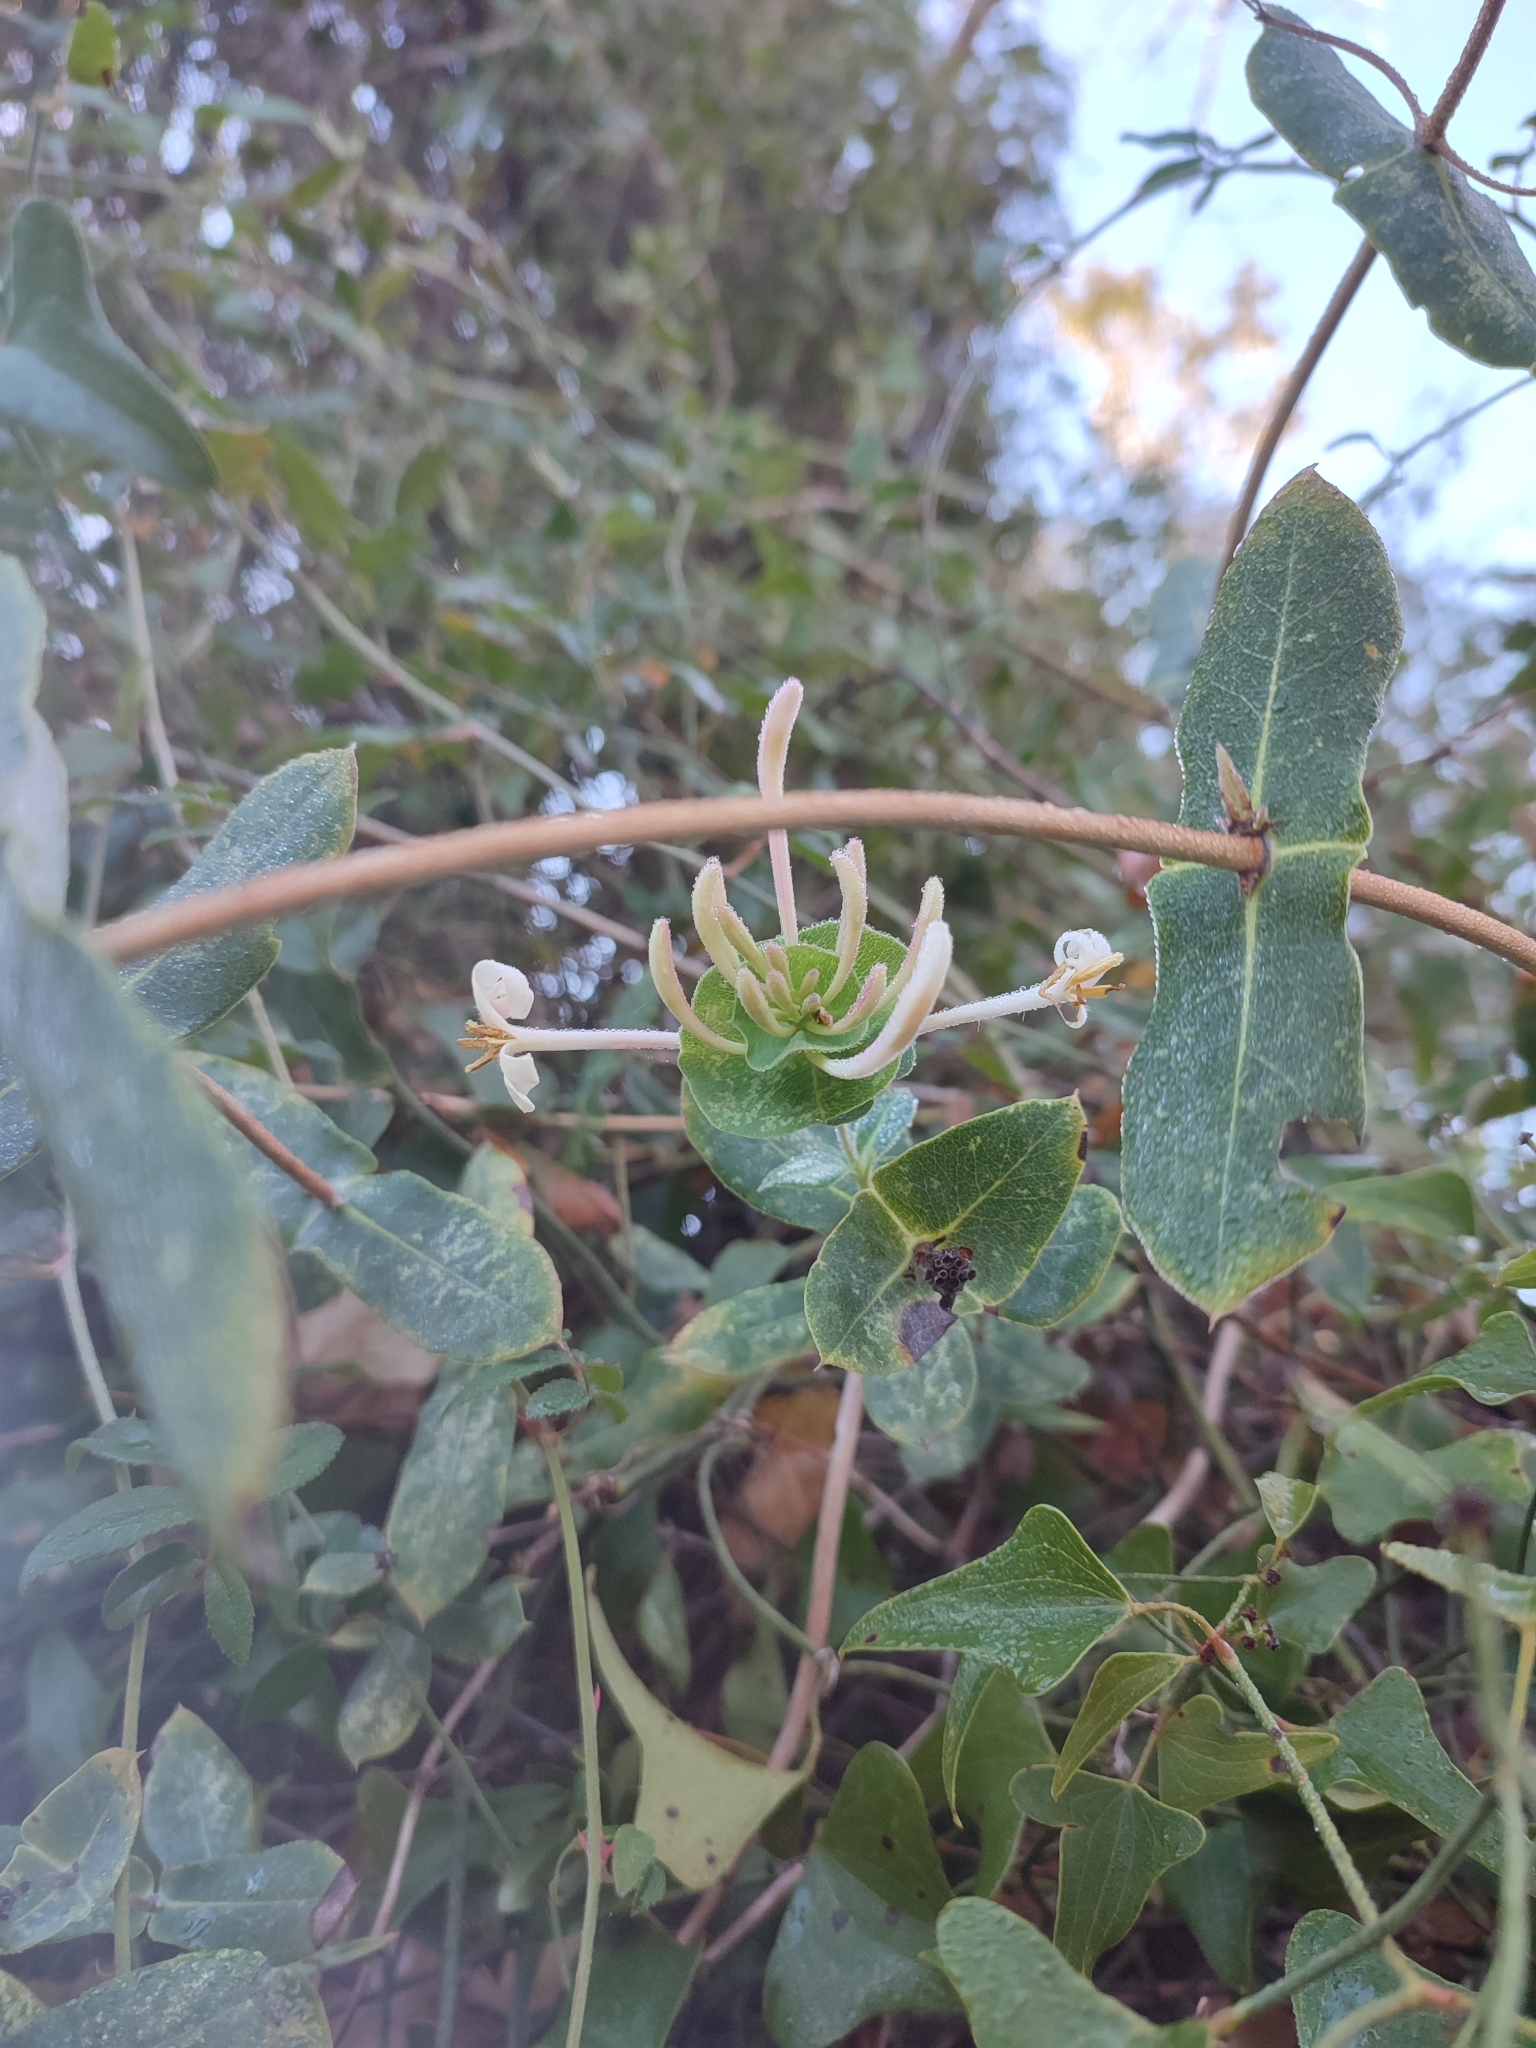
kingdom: Plantae
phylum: Tracheophyta
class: Magnoliopsida
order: Dipsacales
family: Caprifoliaceae
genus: Lonicera
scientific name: Lonicera implexa
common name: Minorca honeysuckle
